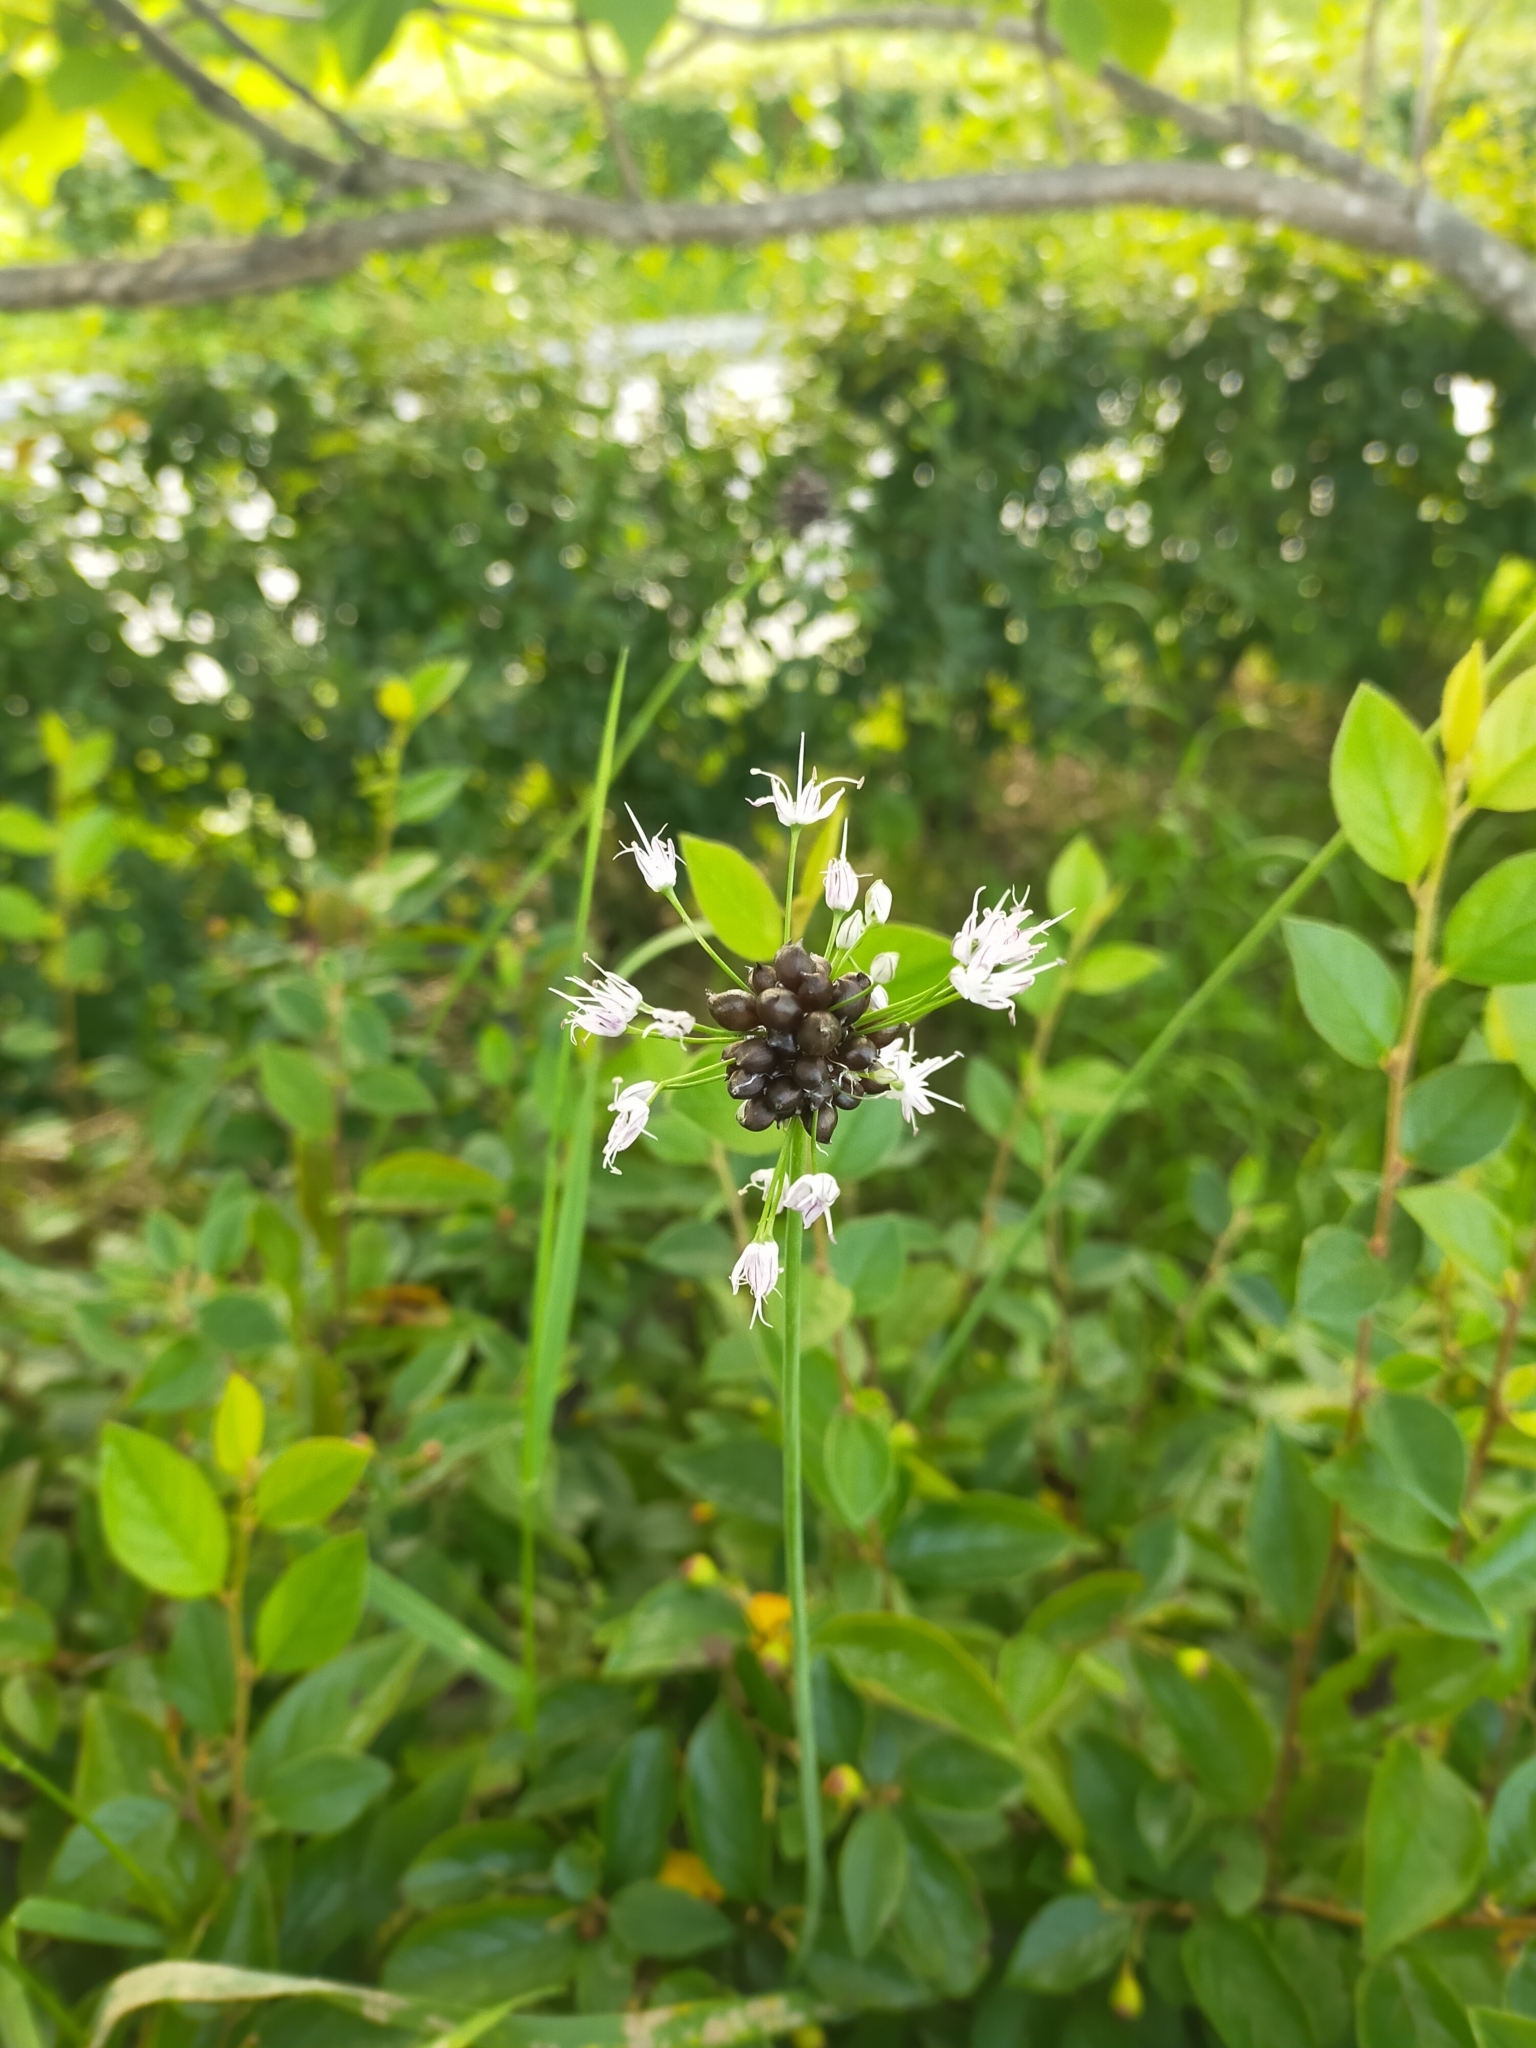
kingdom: Plantae
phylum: Tracheophyta
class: Liliopsida
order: Asparagales
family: Amaryllidaceae
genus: Allium
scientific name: Allium macrostemon
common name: Chinese garlic
